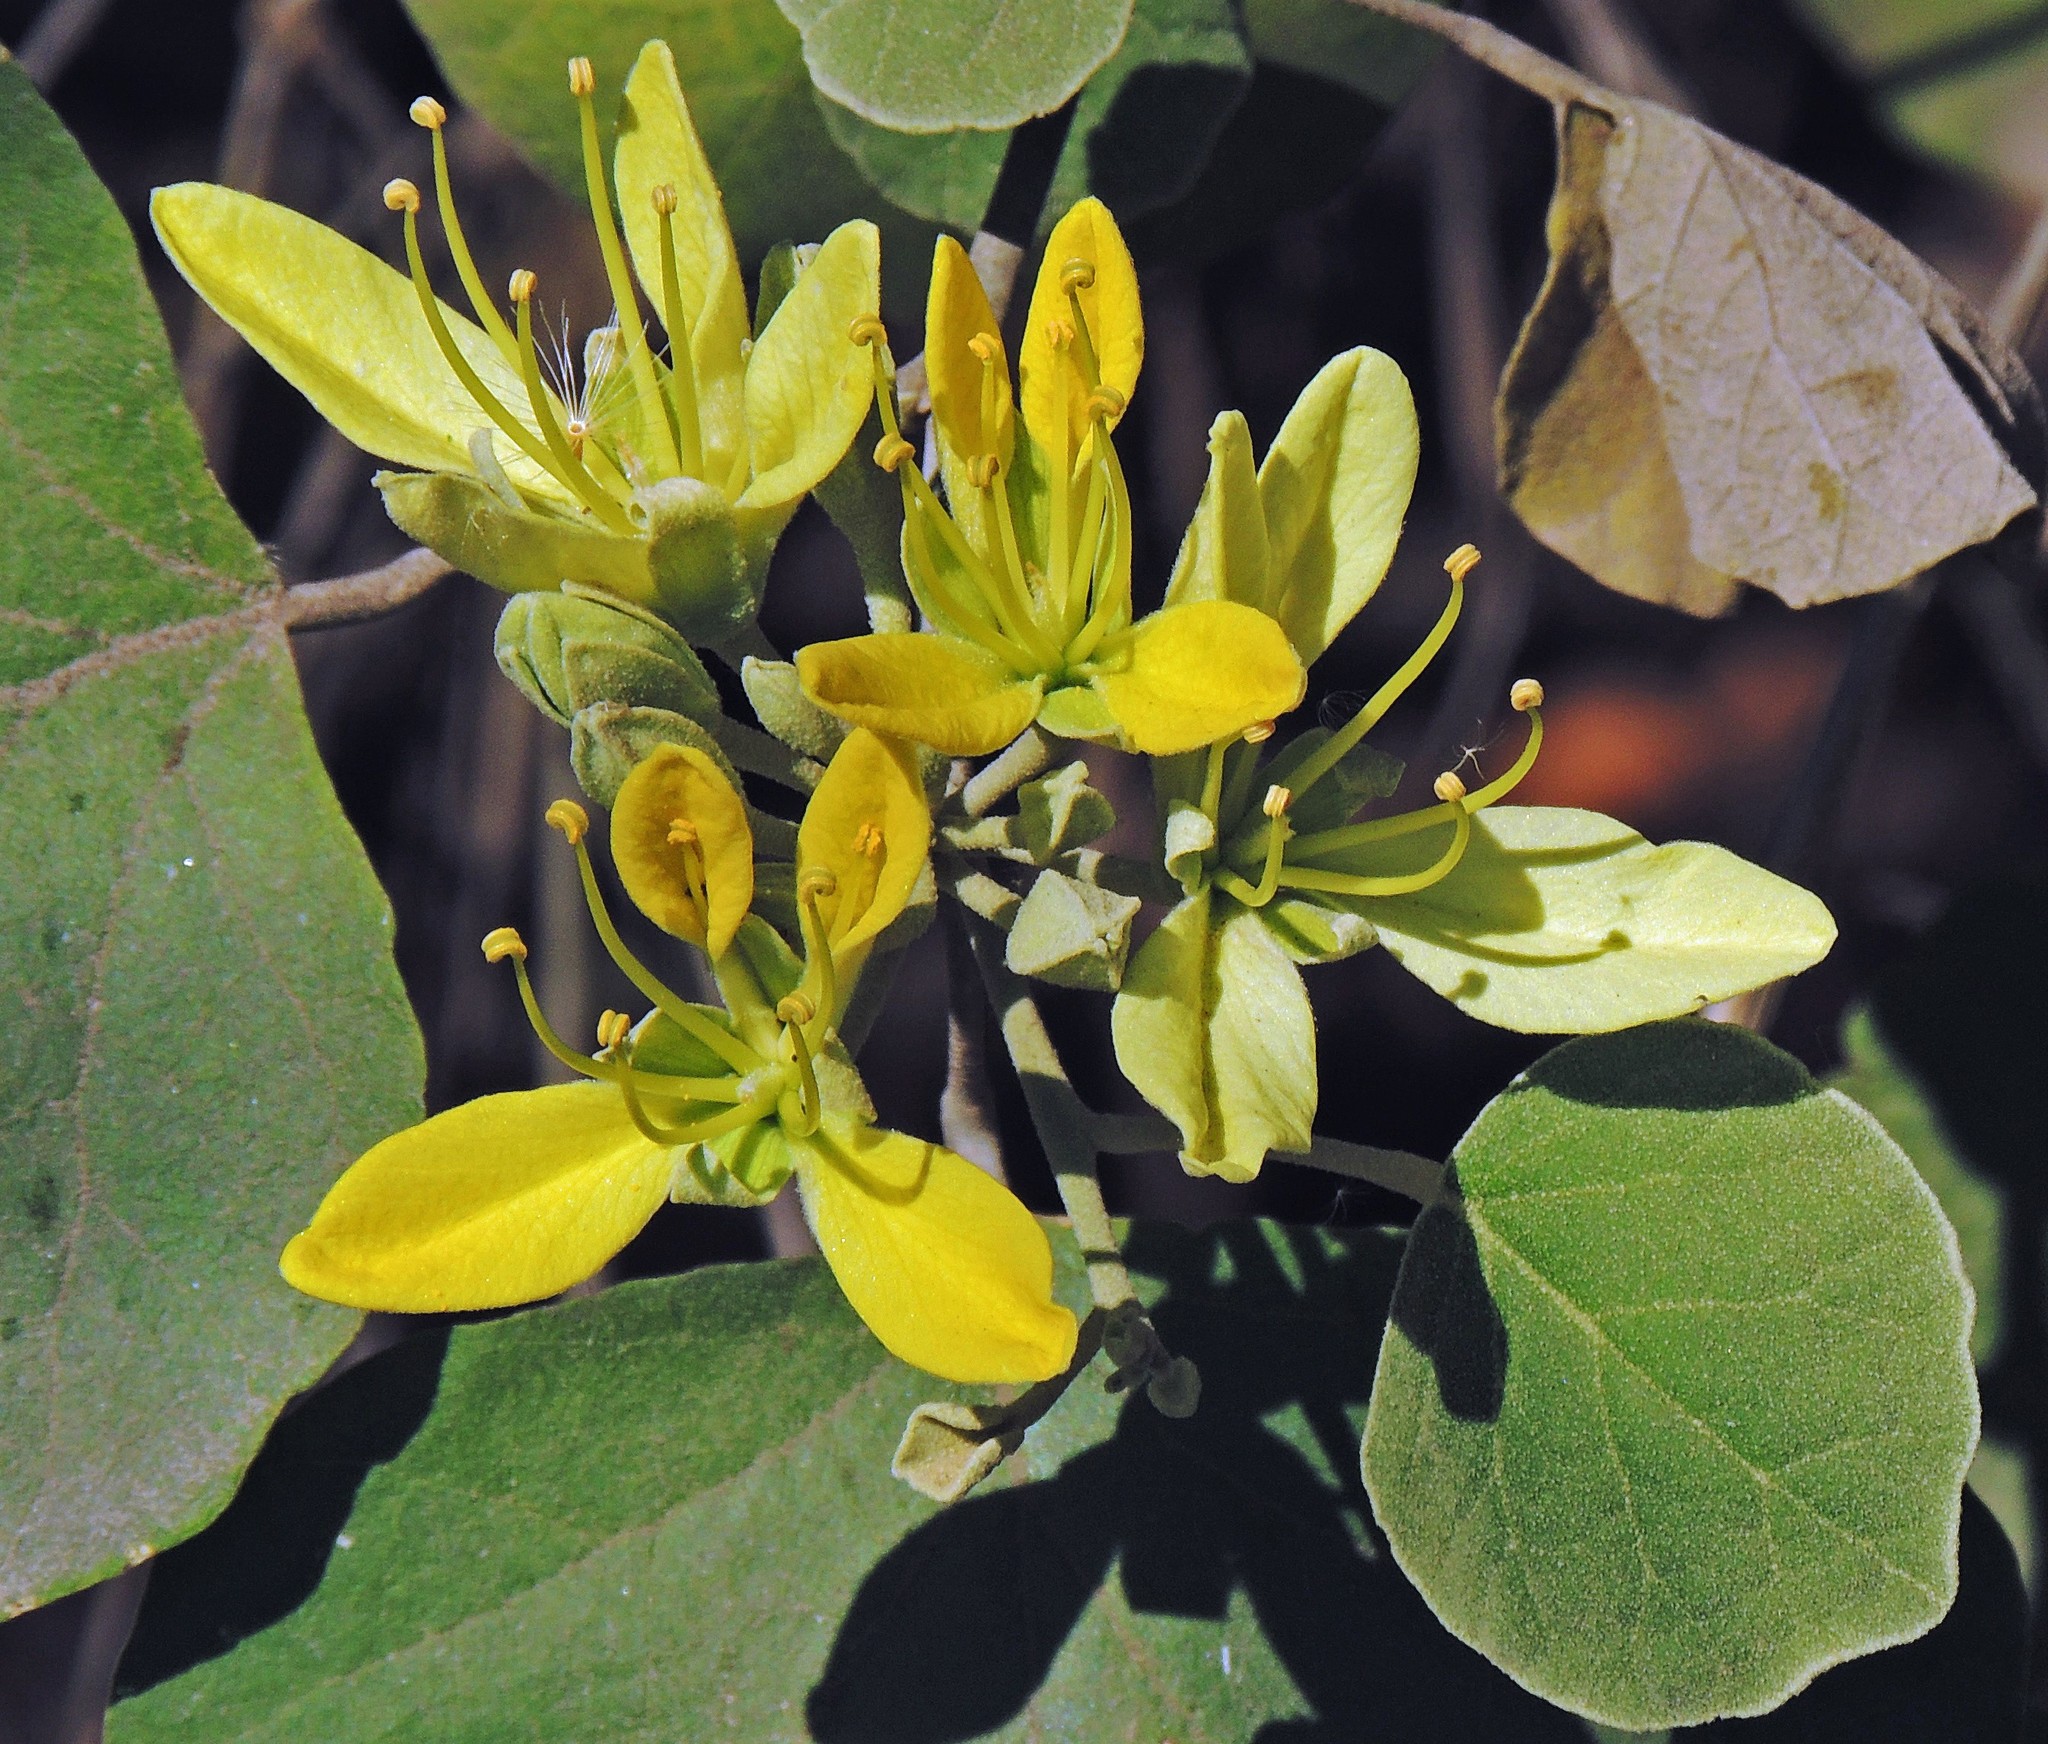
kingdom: Plantae
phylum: Tracheophyta
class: Magnoliopsida
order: Brassicales
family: Capparaceae
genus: Capparicordis
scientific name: Capparicordis tweedieana
